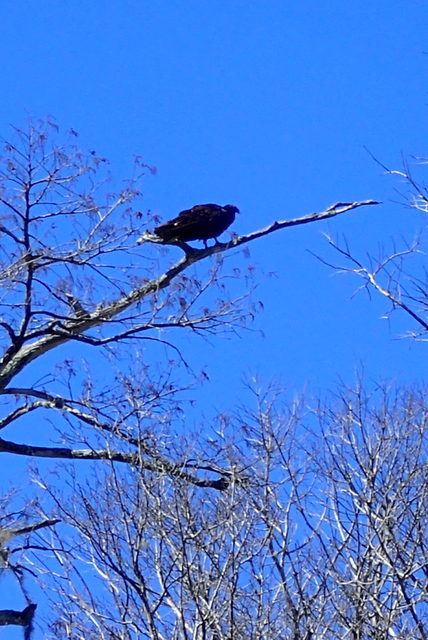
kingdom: Animalia
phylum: Chordata
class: Aves
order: Accipitriformes
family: Cathartidae
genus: Cathartes
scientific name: Cathartes aura
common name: Turkey vulture
